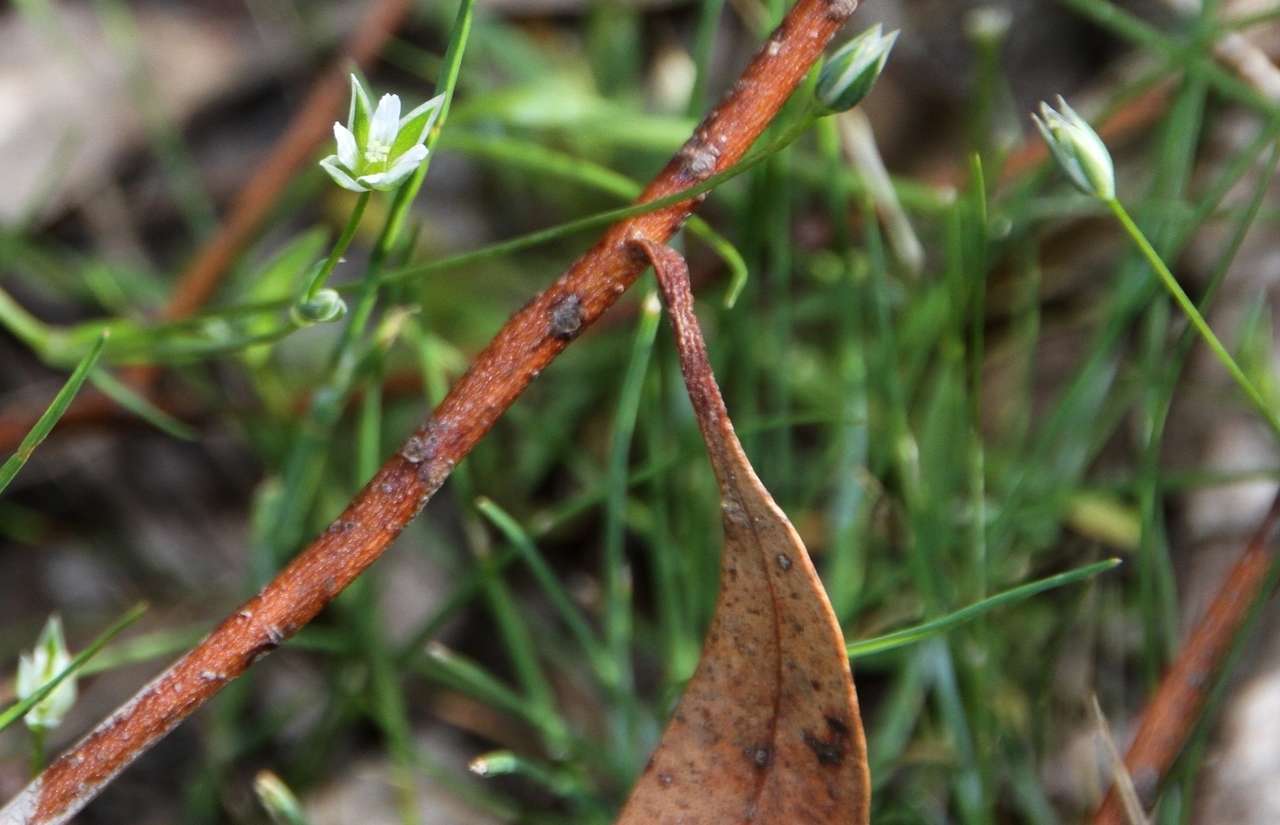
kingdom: Plantae
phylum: Tracheophyta
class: Magnoliopsida
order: Caryophyllales
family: Caryophyllaceae
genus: Moenchia
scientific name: Moenchia erecta
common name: Upright chickweed
